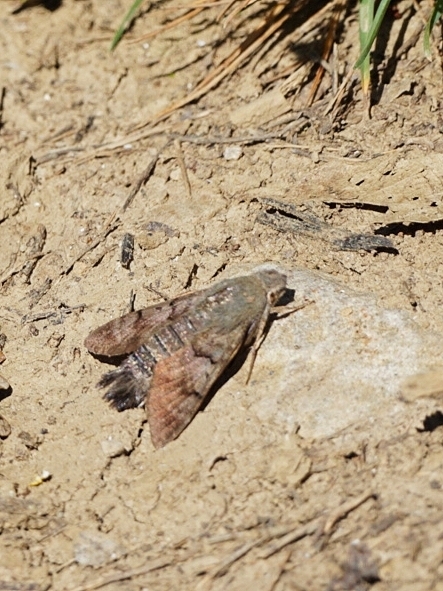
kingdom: Animalia
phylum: Arthropoda
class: Insecta
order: Lepidoptera
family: Sphingidae
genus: Macroglossum
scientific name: Macroglossum stellatarum
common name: Humming-bird hawk-moth
